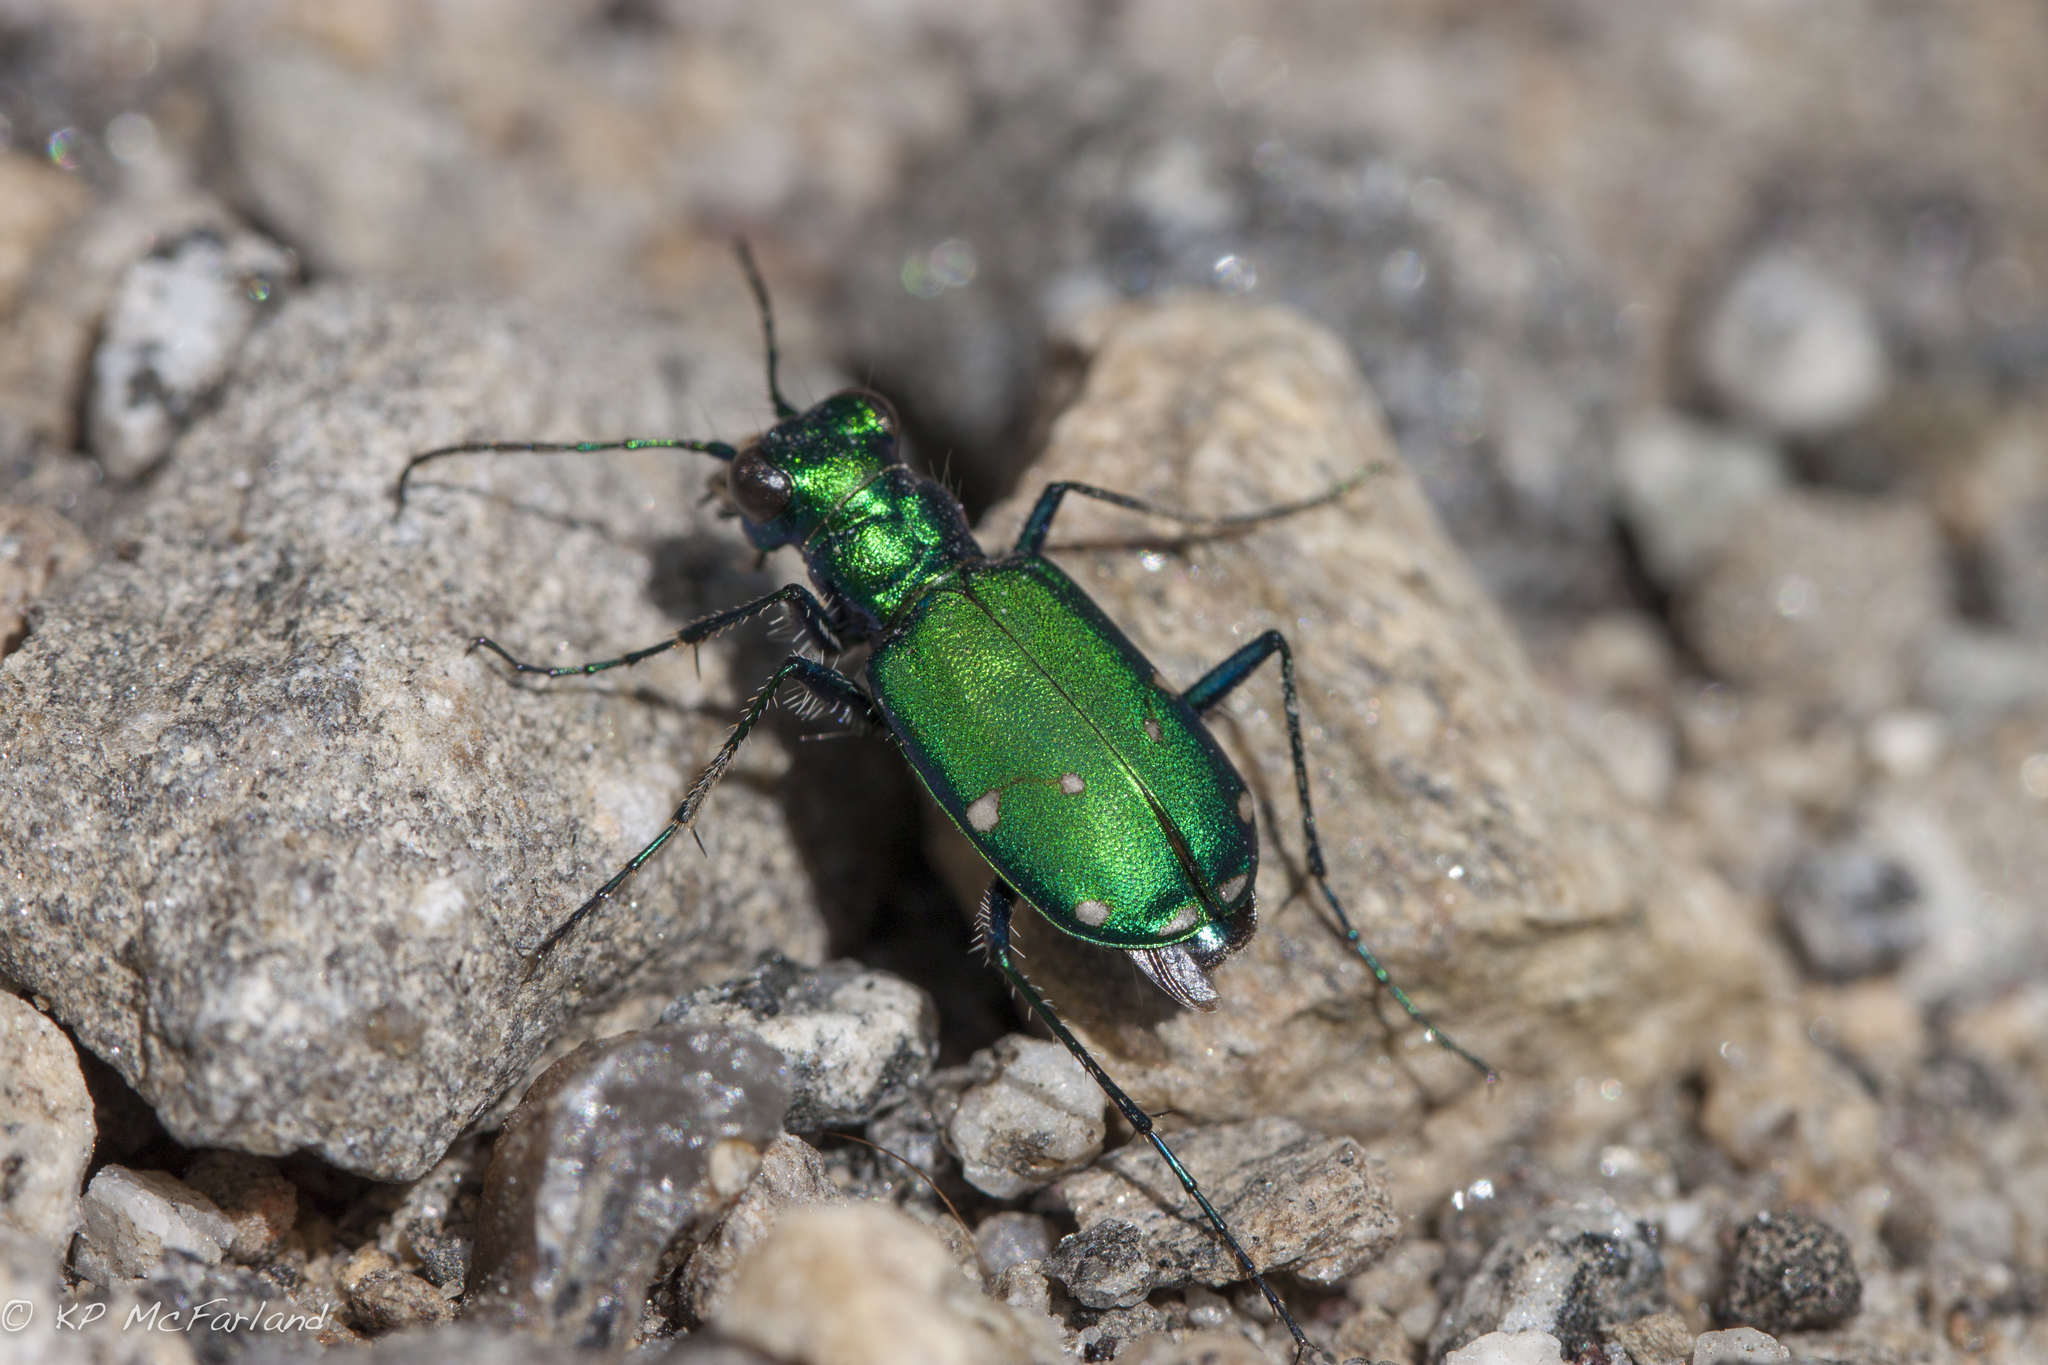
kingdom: Animalia
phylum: Arthropoda
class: Insecta
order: Coleoptera
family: Carabidae
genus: Cicindela
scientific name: Cicindela sexguttata
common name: Six-spotted tiger beetle
